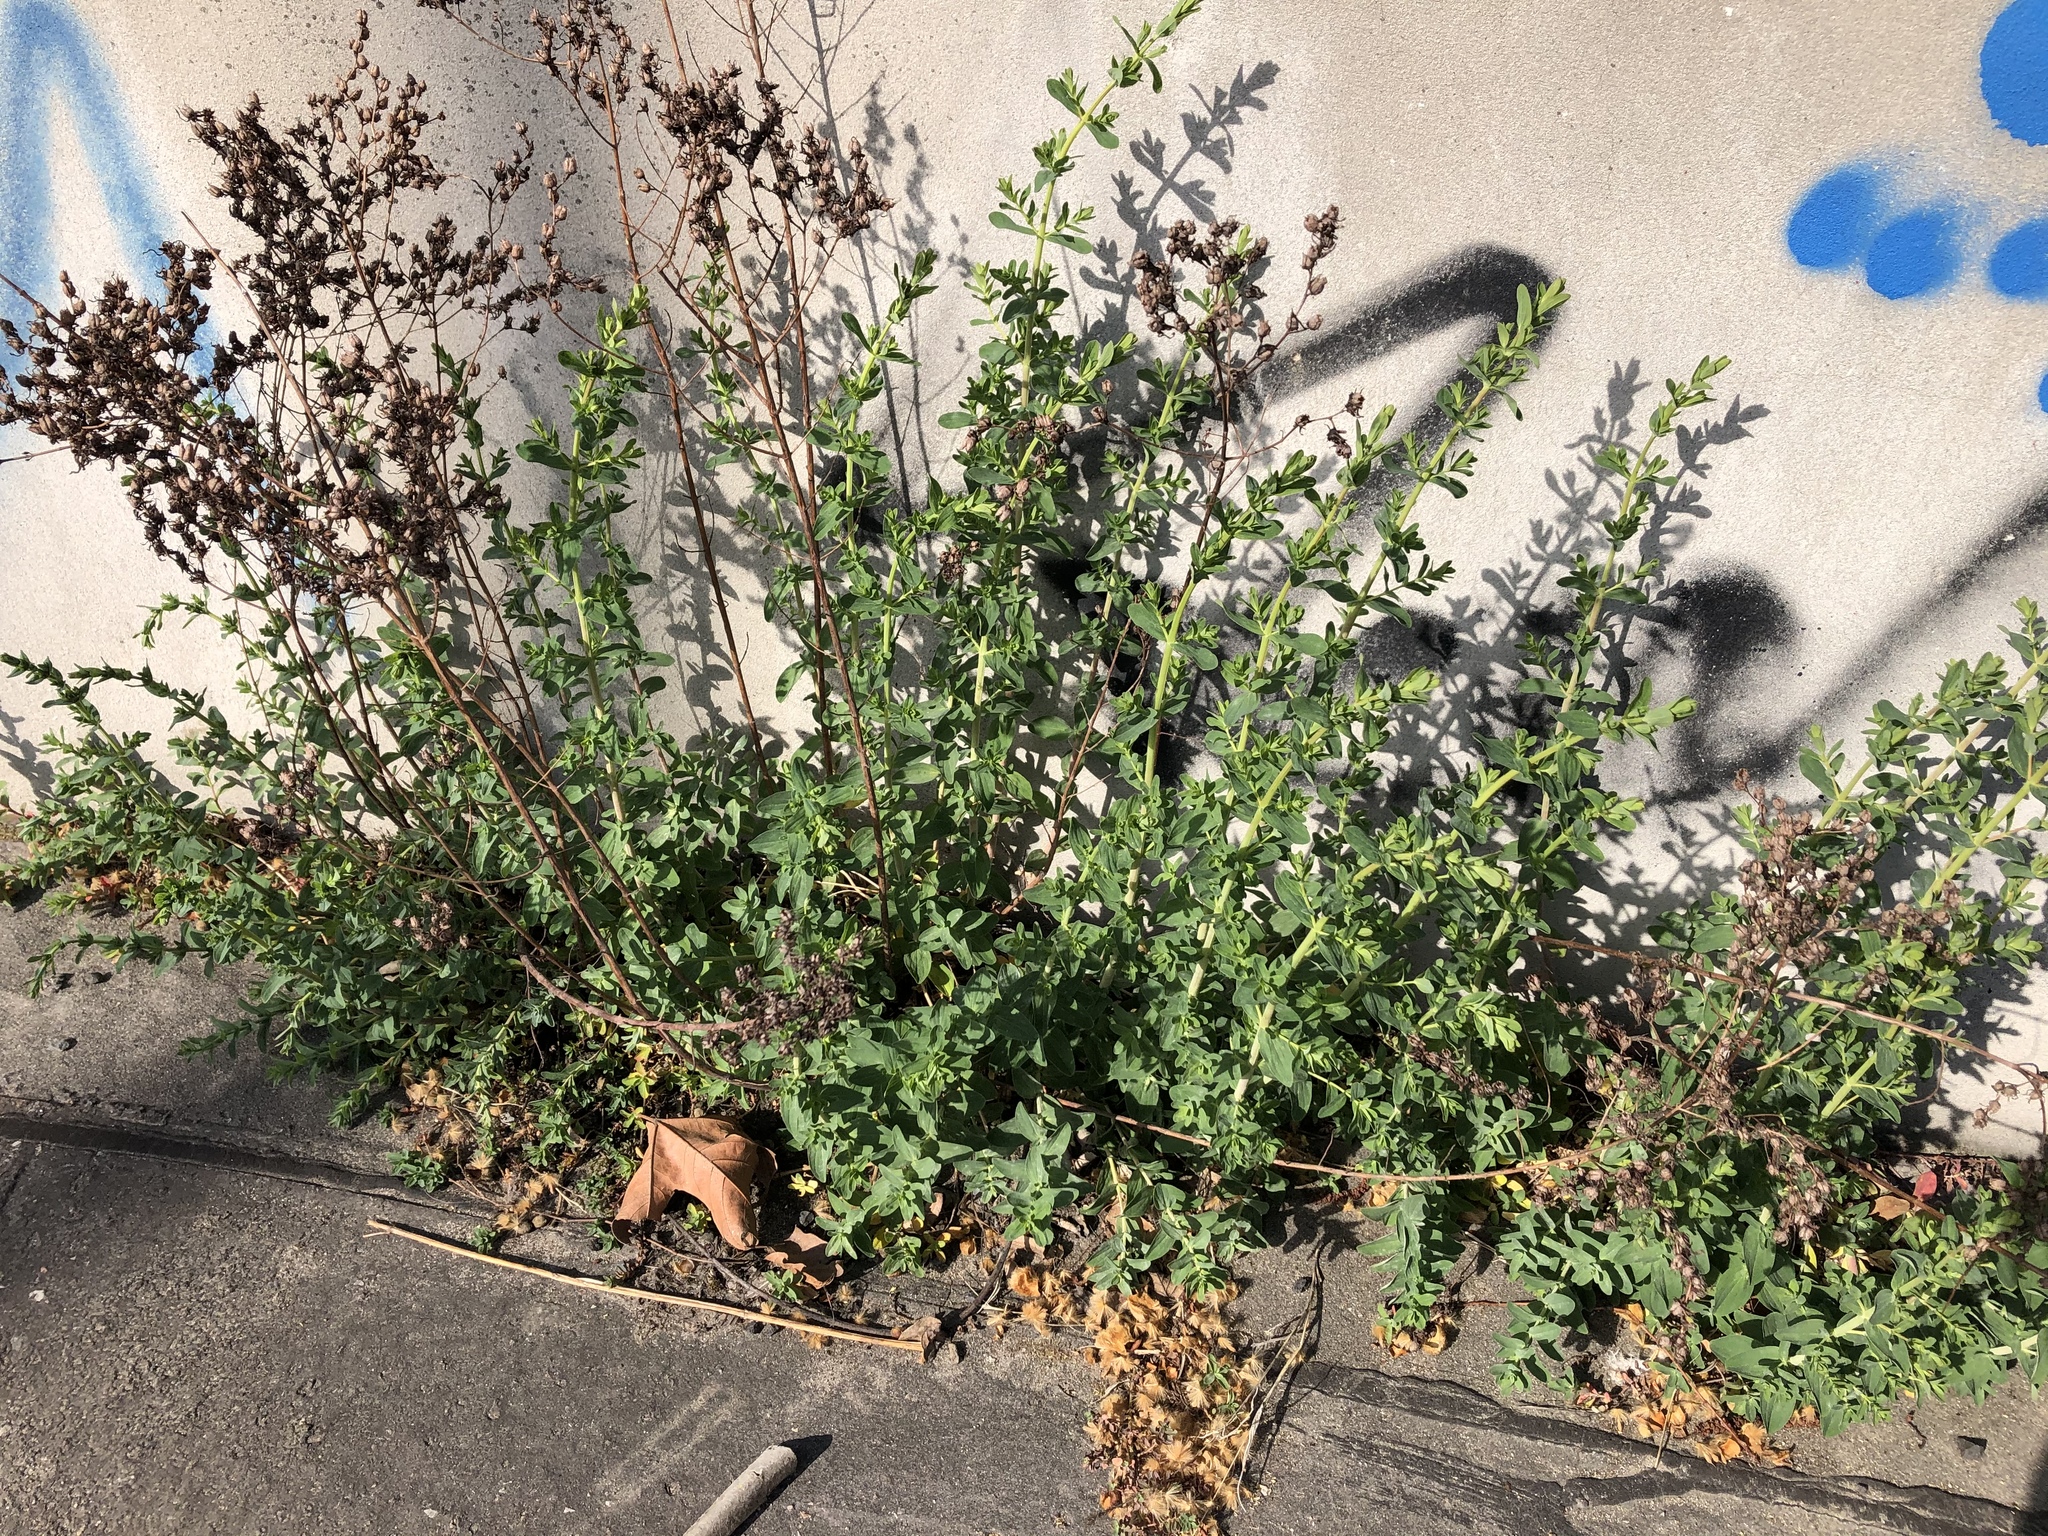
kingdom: Plantae
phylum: Tracheophyta
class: Magnoliopsida
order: Malpighiales
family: Hypericaceae
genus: Hypericum
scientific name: Hypericum perforatum
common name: Common st. johnswort
